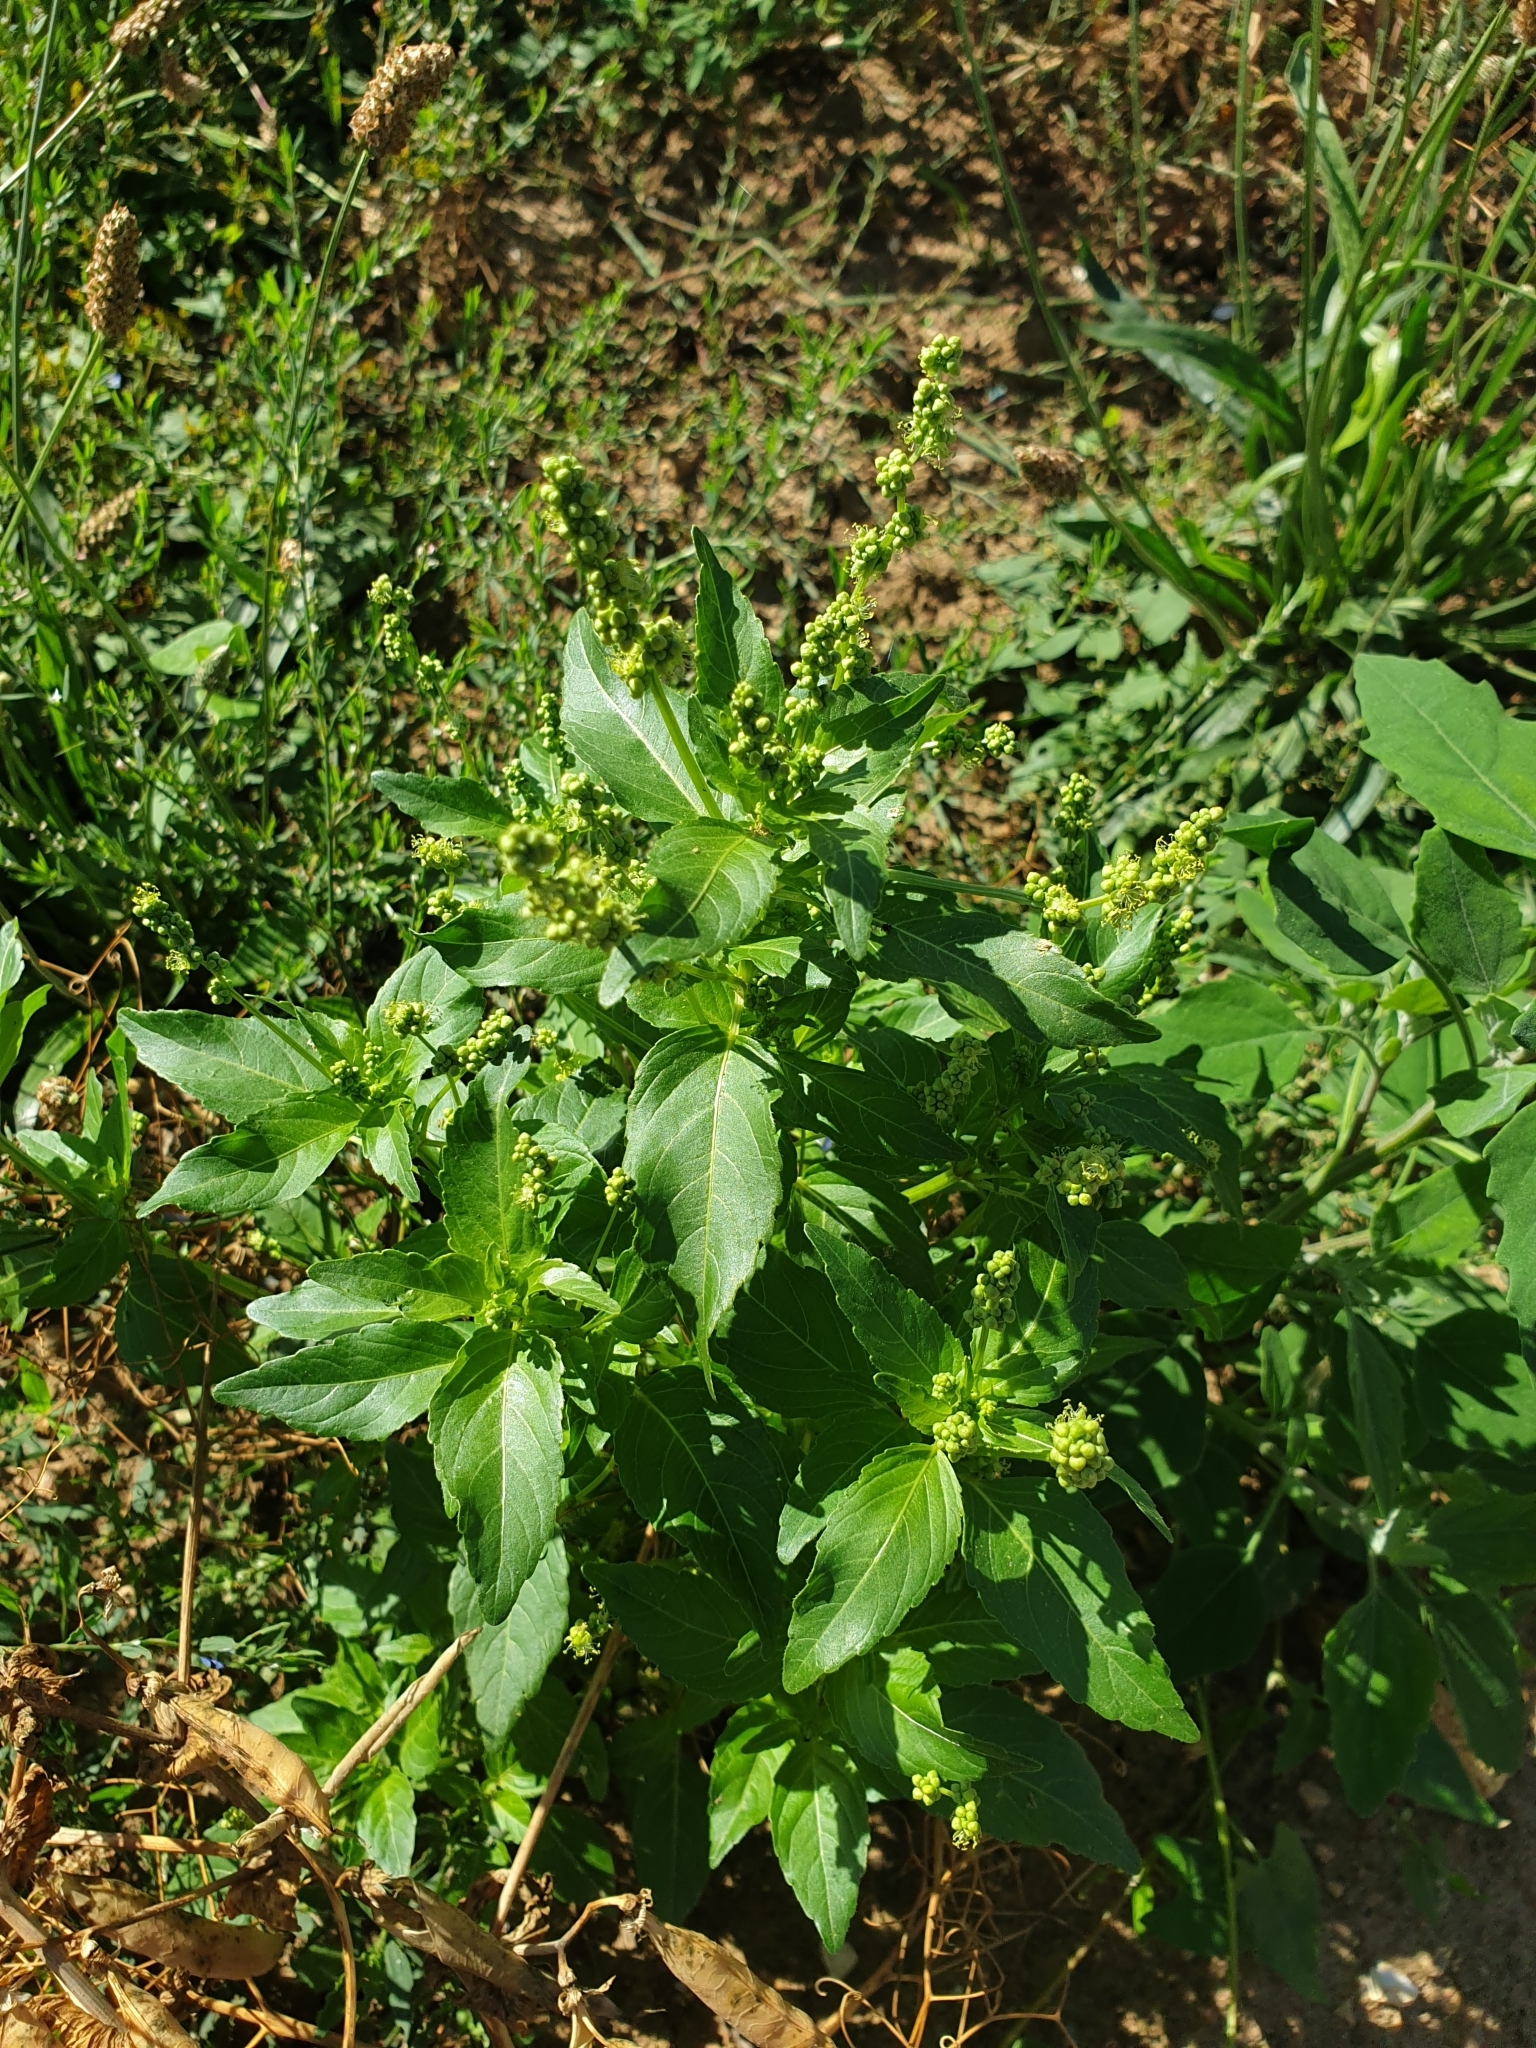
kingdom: Plantae
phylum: Tracheophyta
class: Magnoliopsida
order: Malpighiales
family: Euphorbiaceae
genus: Mercurialis
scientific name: Mercurialis annua
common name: Annual mercury
